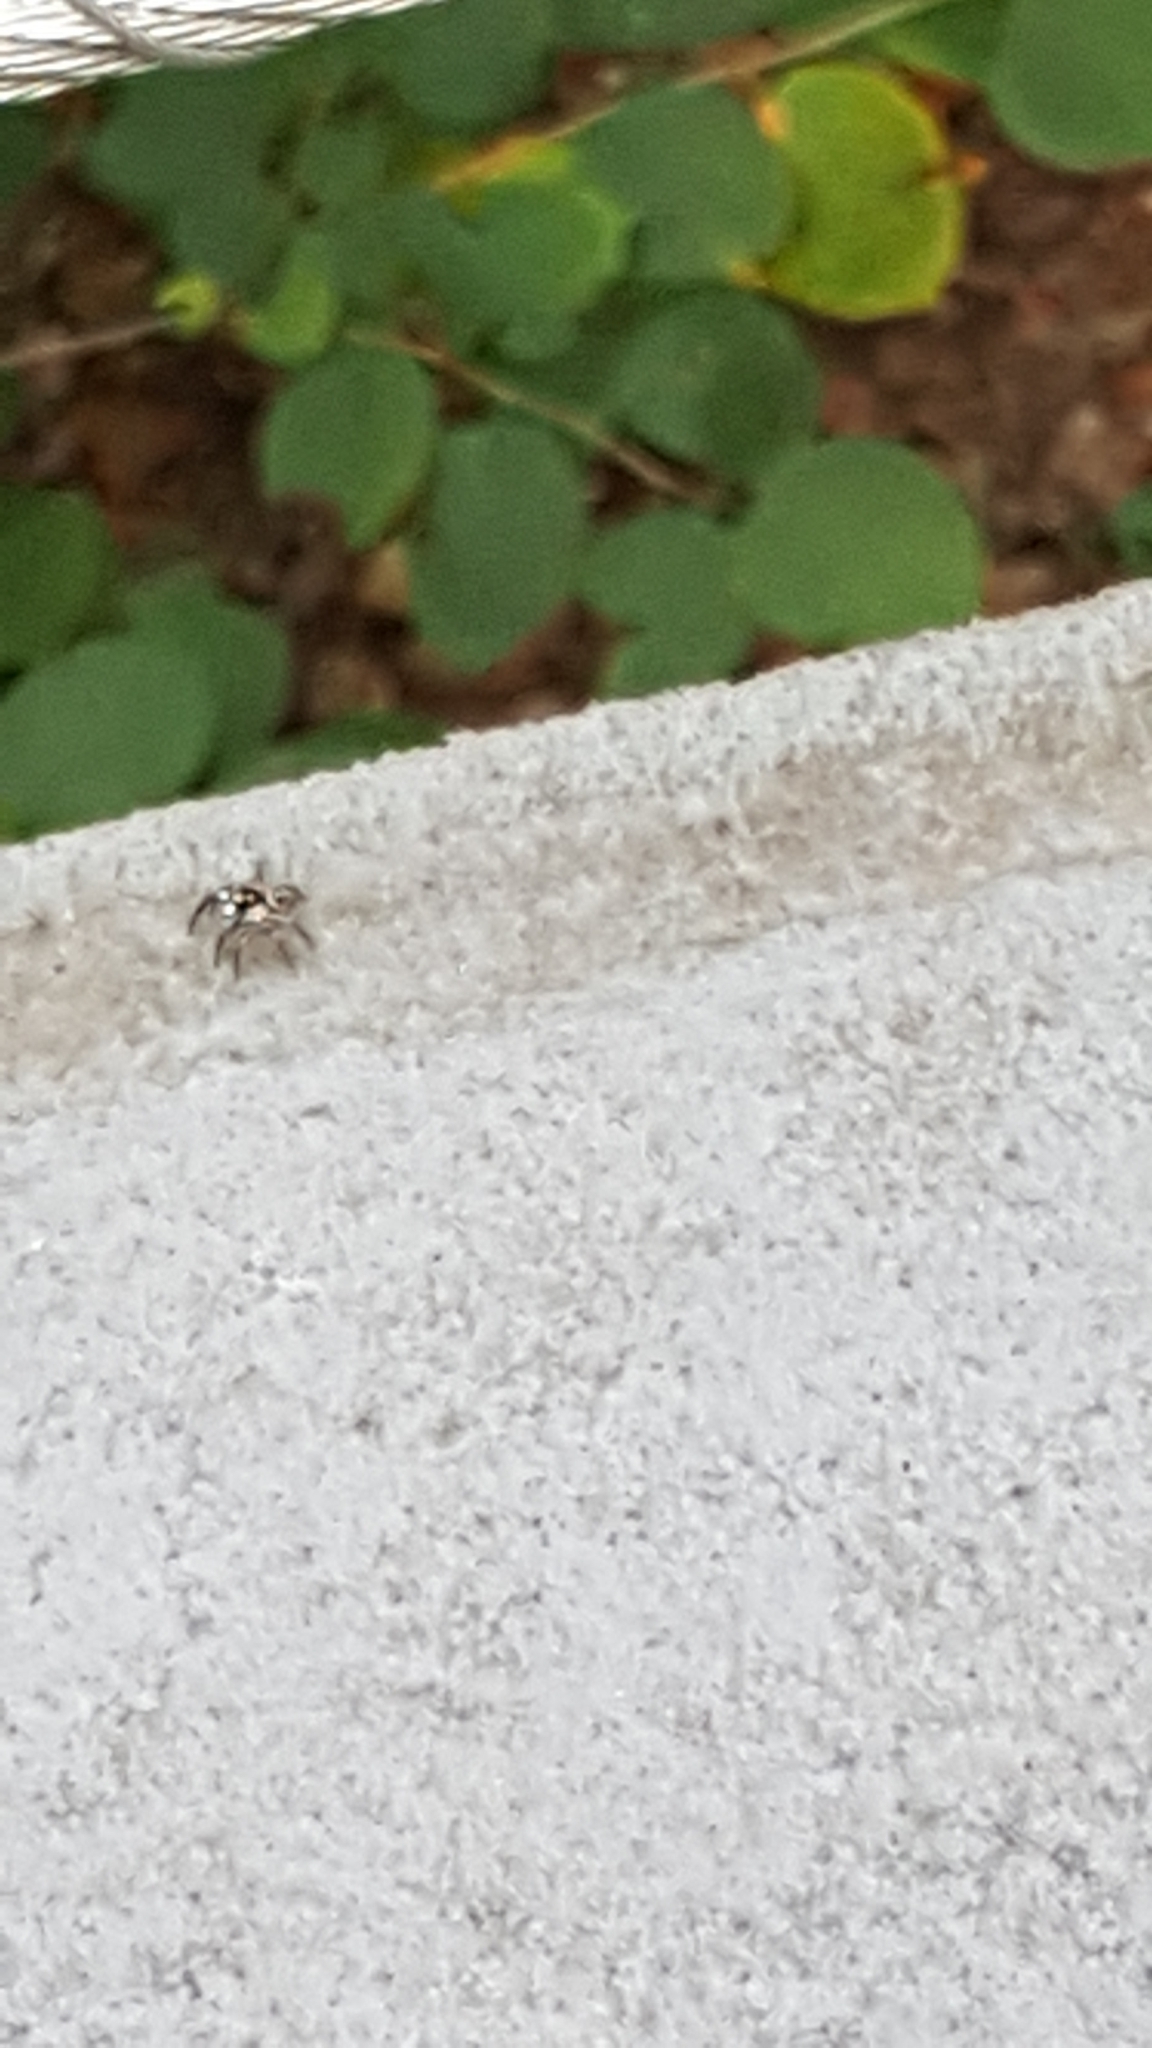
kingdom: Animalia
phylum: Arthropoda
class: Arachnida
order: Araneae
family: Salticidae
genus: Anasaitis
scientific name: Anasaitis canosa
